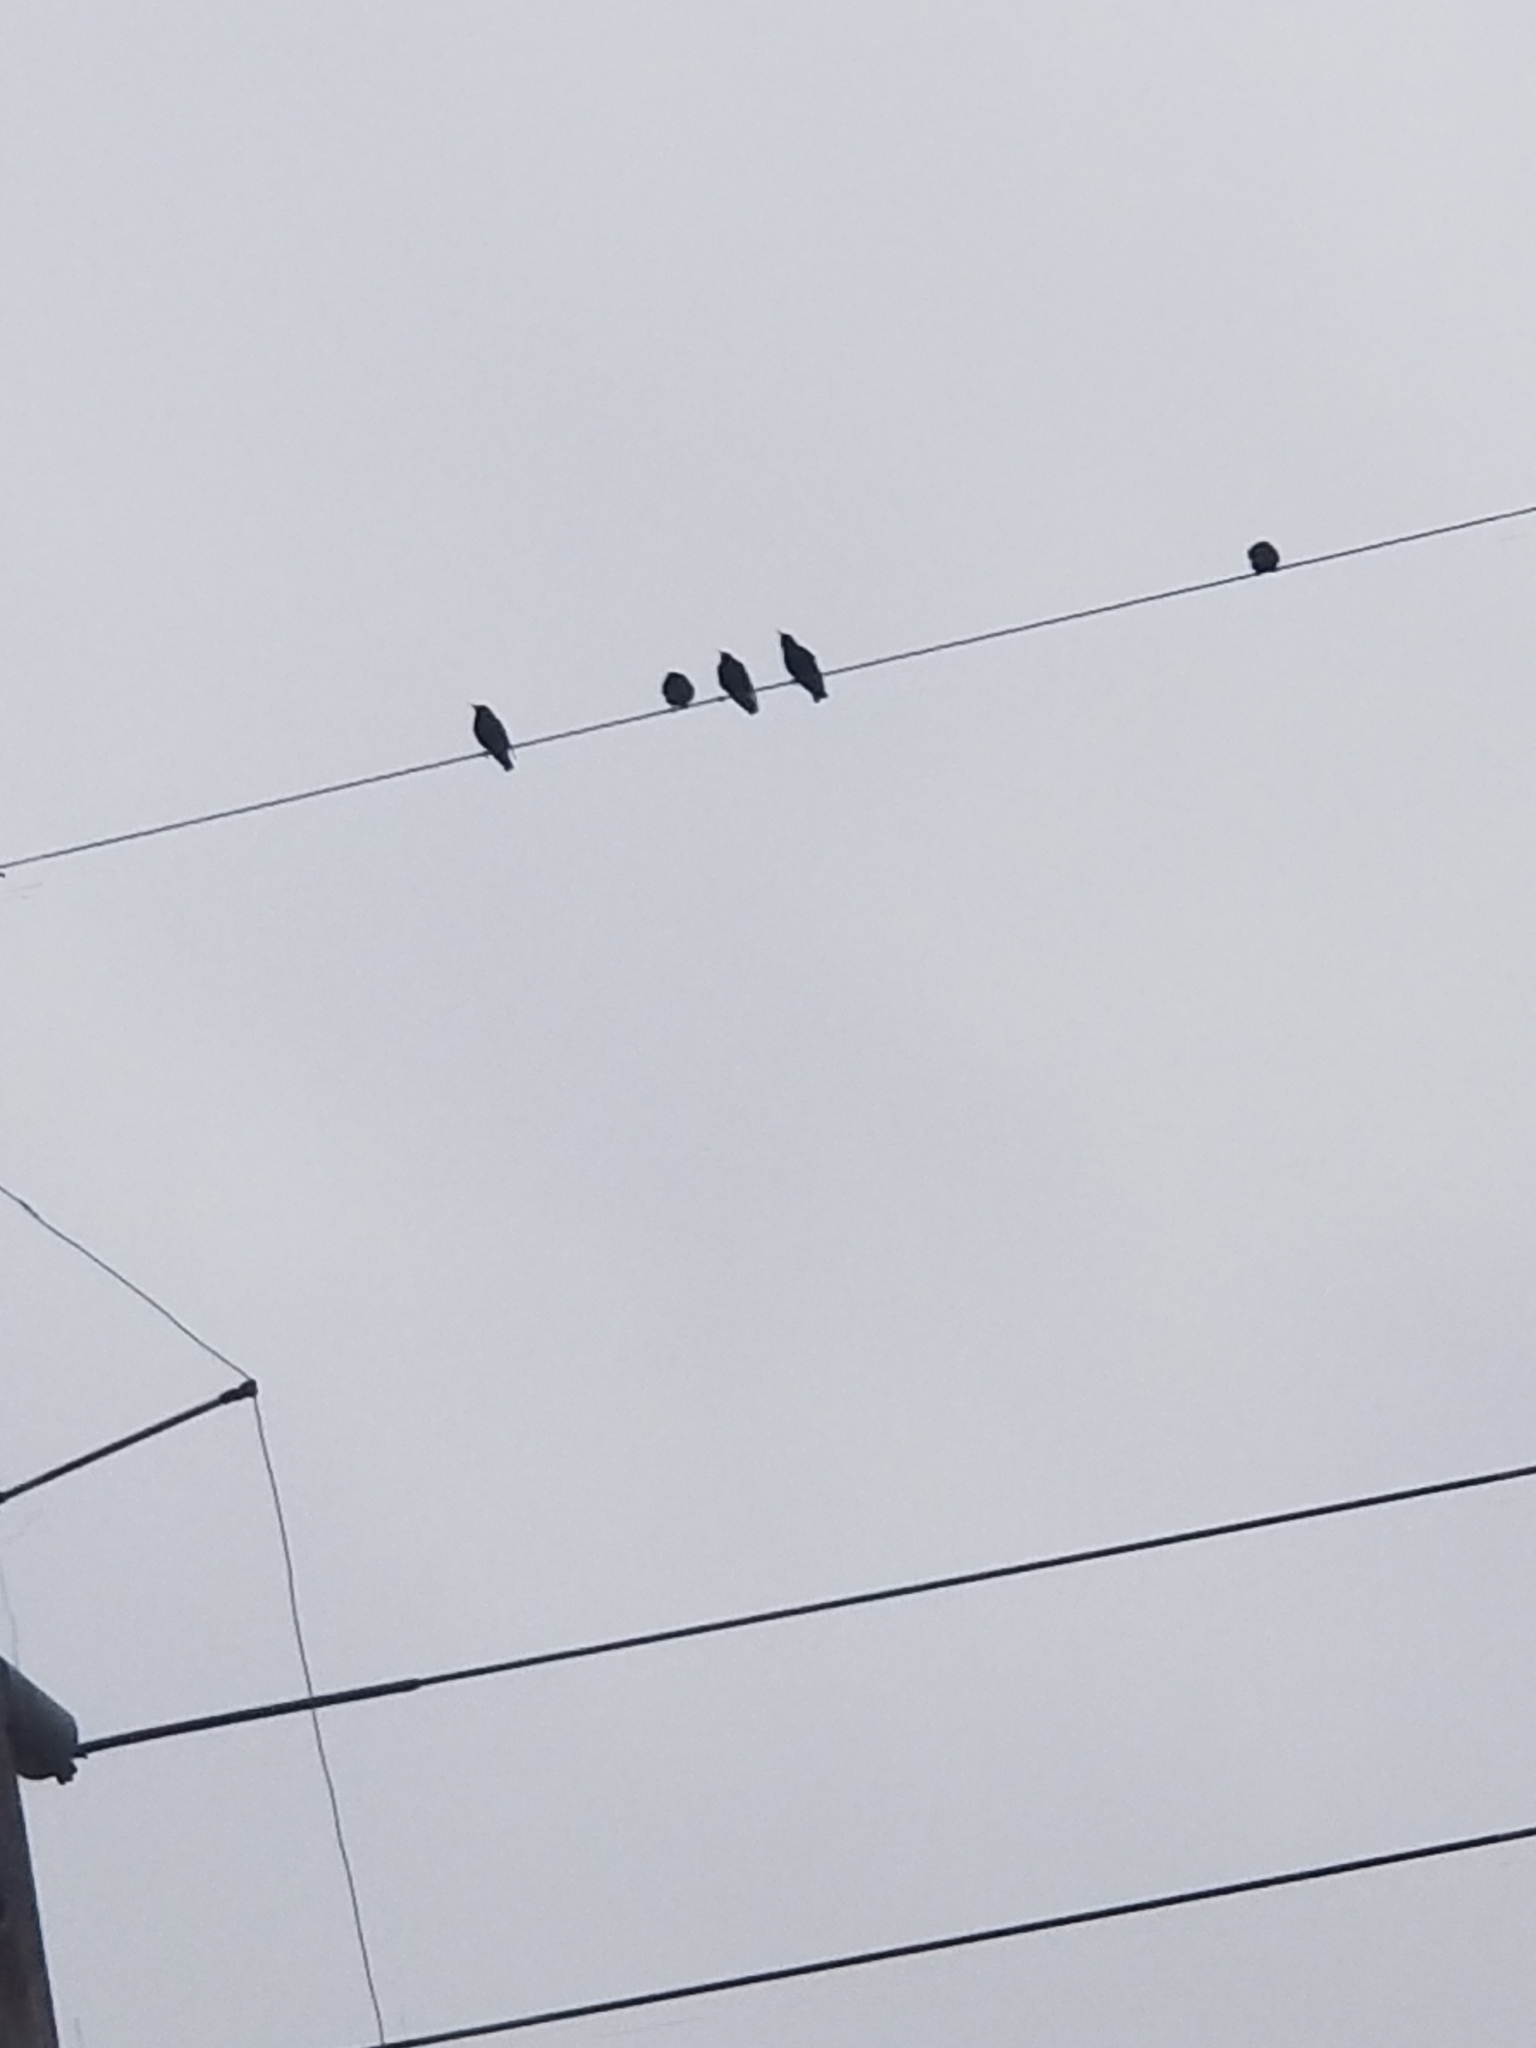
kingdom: Animalia
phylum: Chordata
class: Aves
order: Passeriformes
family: Sturnidae
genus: Sturnus
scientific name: Sturnus vulgaris
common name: Common starling
